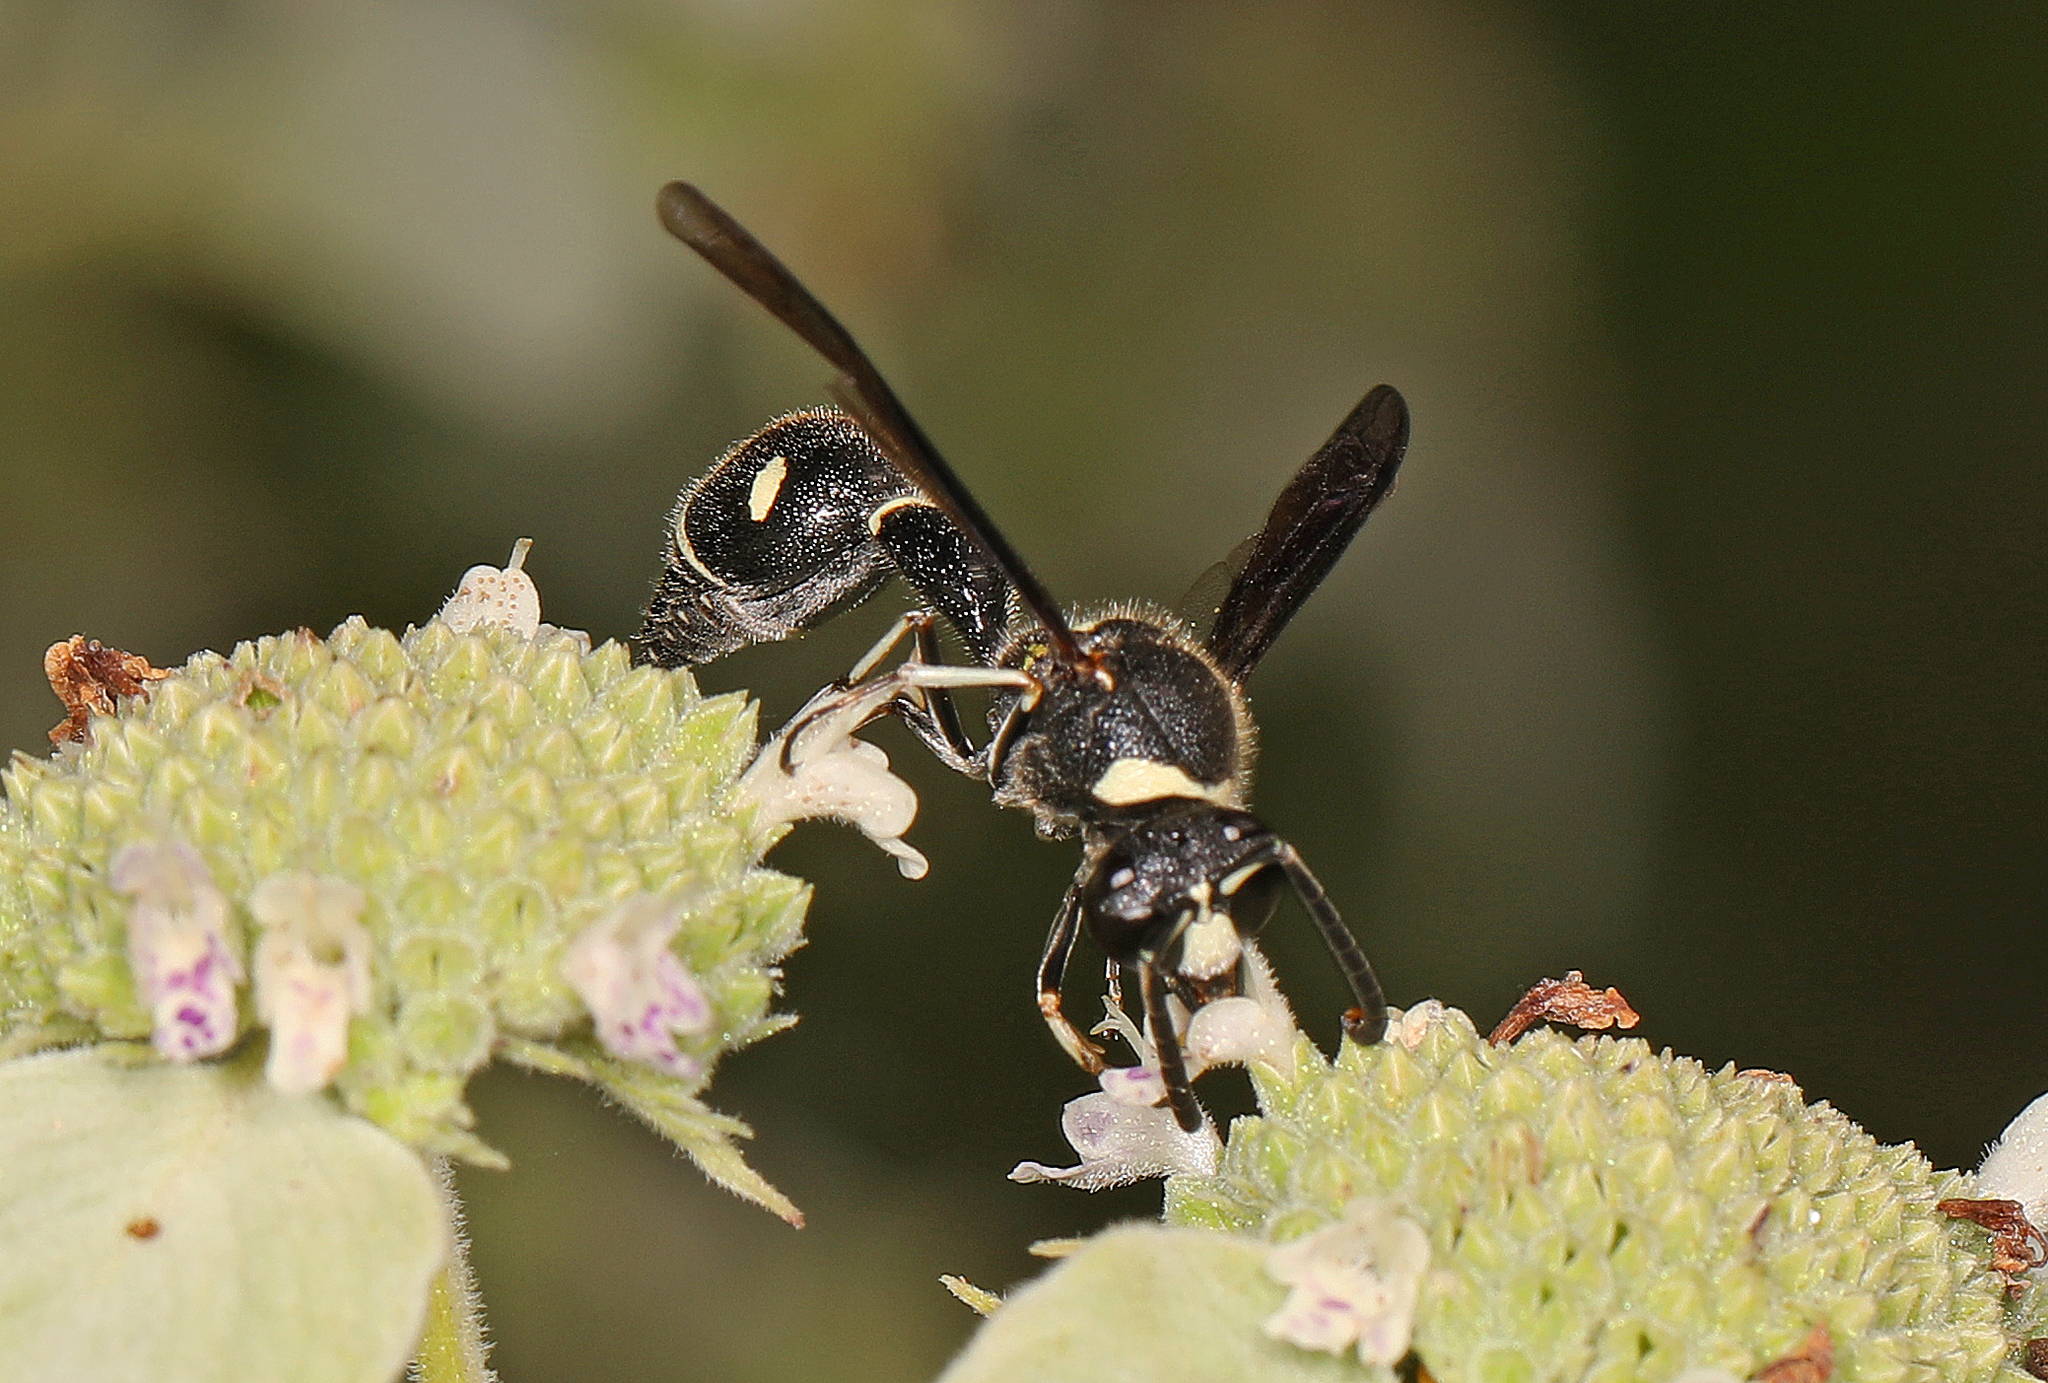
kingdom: Animalia
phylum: Arthropoda
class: Insecta
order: Hymenoptera
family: Vespidae
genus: Eumenes
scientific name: Eumenes fraternus
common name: Fraternal potter wasp
